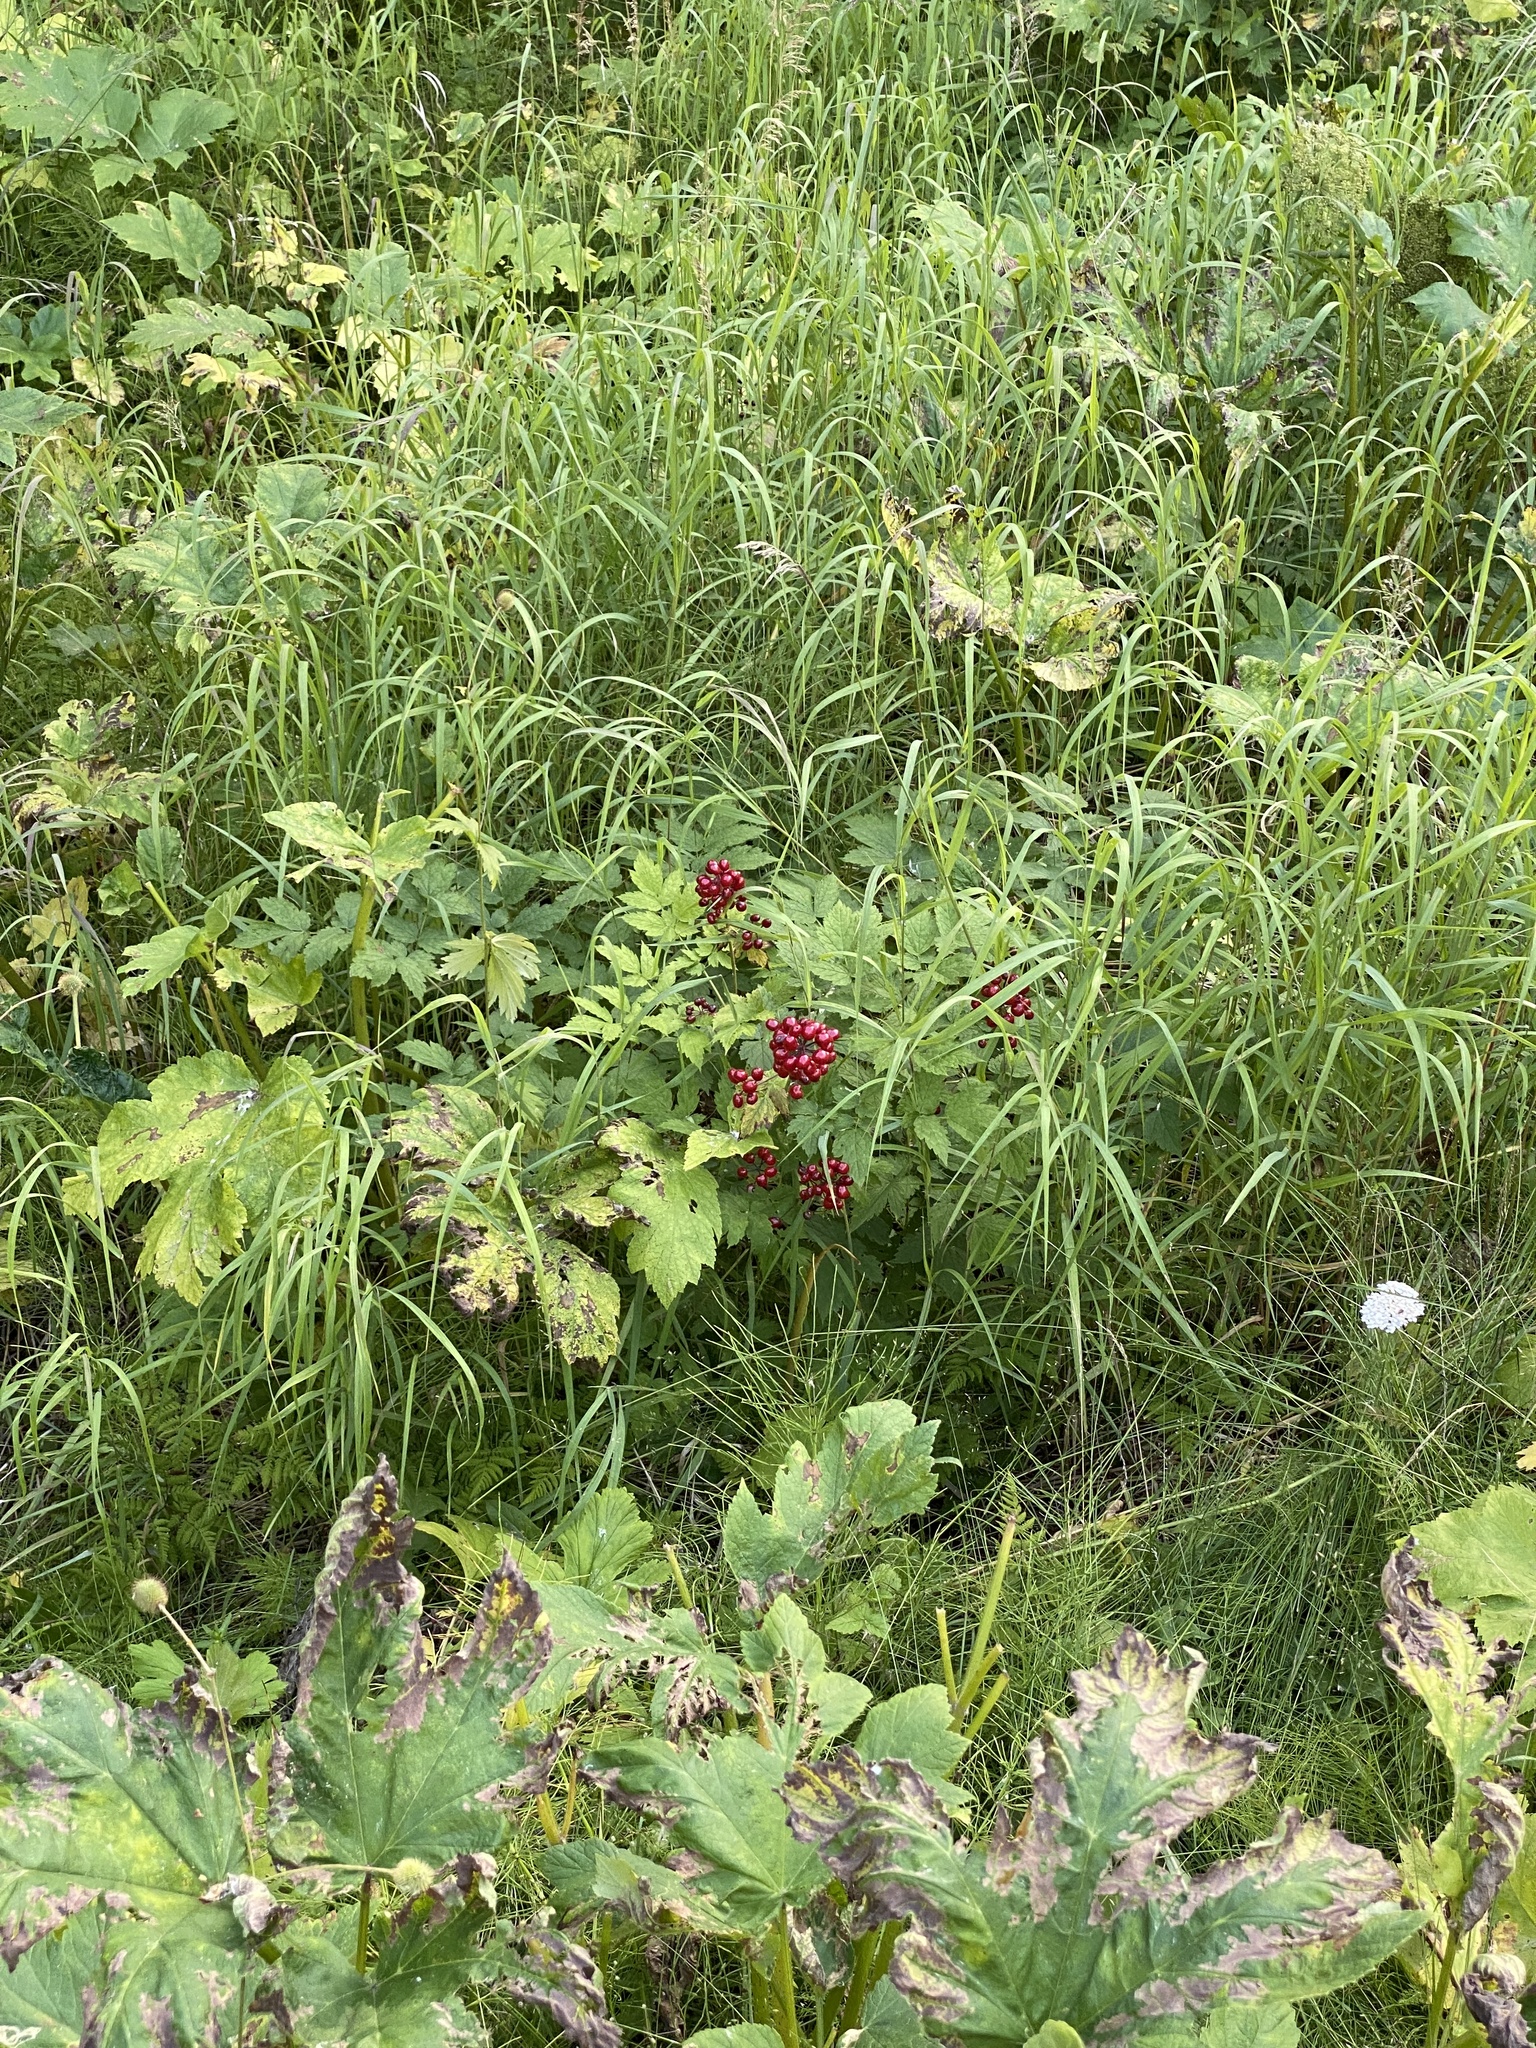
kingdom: Plantae
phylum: Tracheophyta
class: Magnoliopsida
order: Ranunculales
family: Ranunculaceae
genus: Actaea
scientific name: Actaea rubra
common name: Red baneberry
